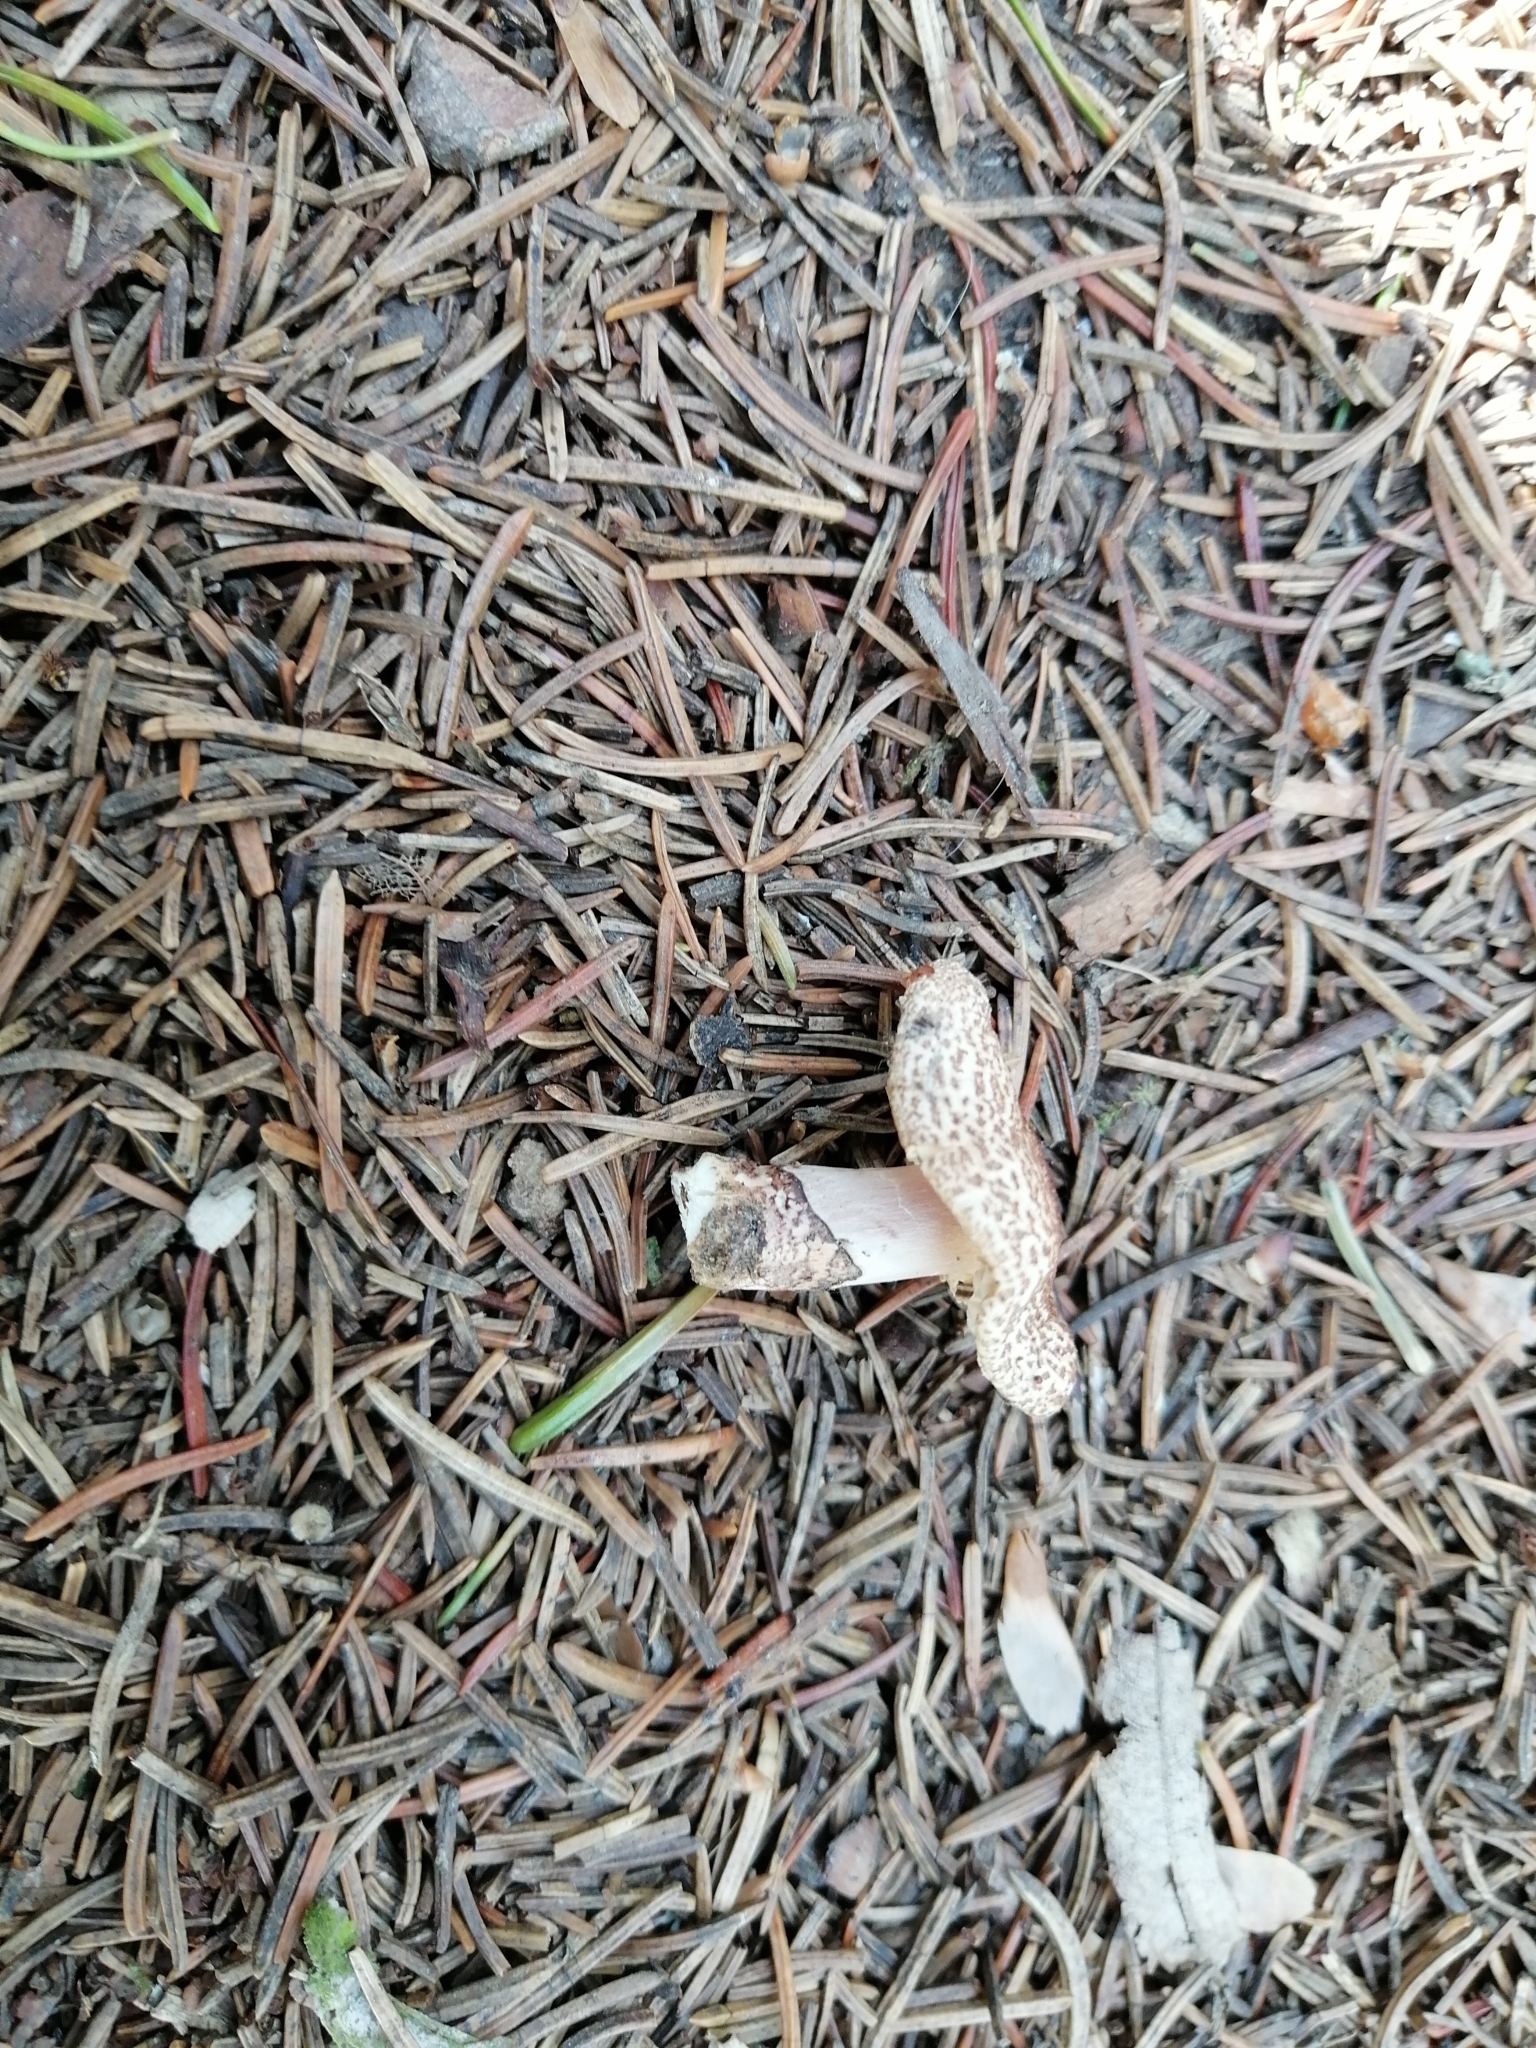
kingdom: Fungi
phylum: Basidiomycota
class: Agaricomycetes
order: Agaricales
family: Agaricaceae
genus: Lepiota
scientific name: Lepiota lilacea
